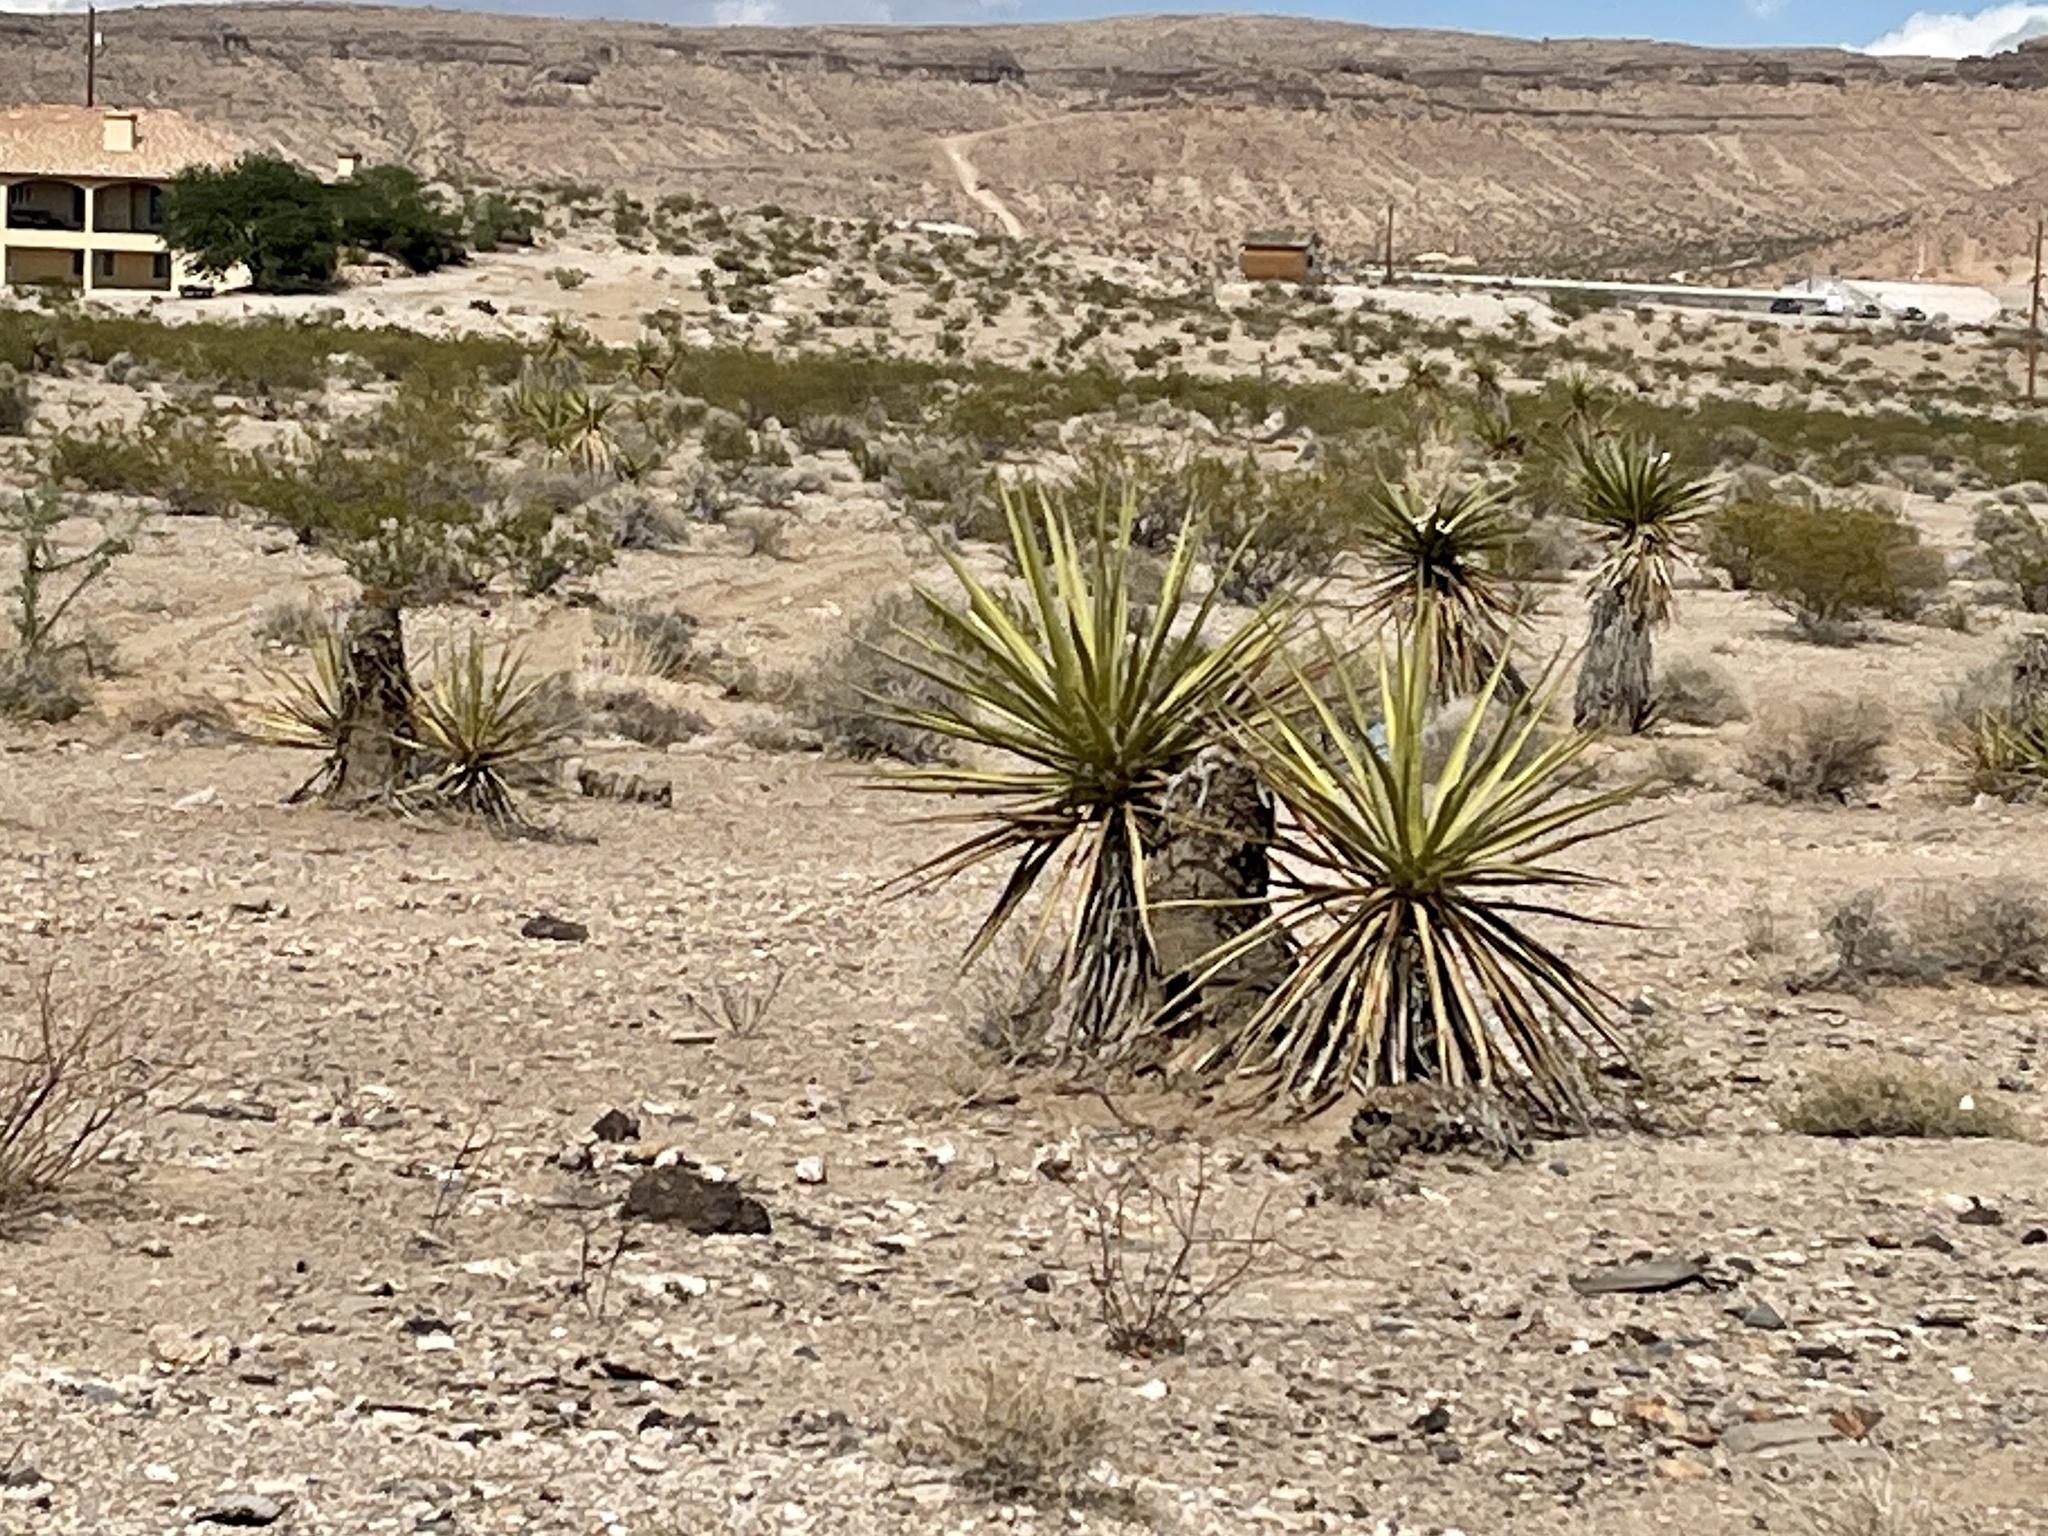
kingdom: Plantae
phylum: Tracheophyta
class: Liliopsida
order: Asparagales
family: Asparagaceae
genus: Yucca
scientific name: Yucca schidigera
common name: Mojave yucca
